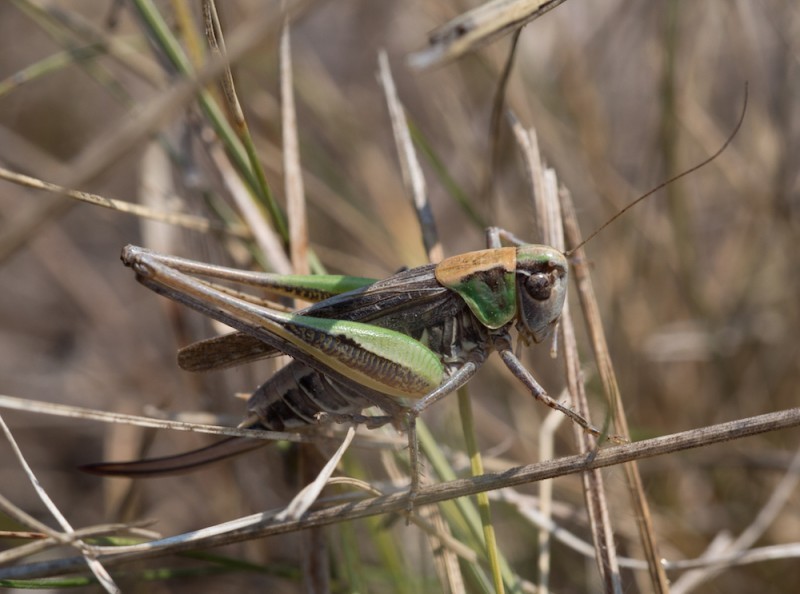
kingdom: Animalia
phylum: Arthropoda
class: Insecta
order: Orthoptera
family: Tettigoniidae
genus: Montana
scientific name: Montana montana
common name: Steppe bush-cricket
